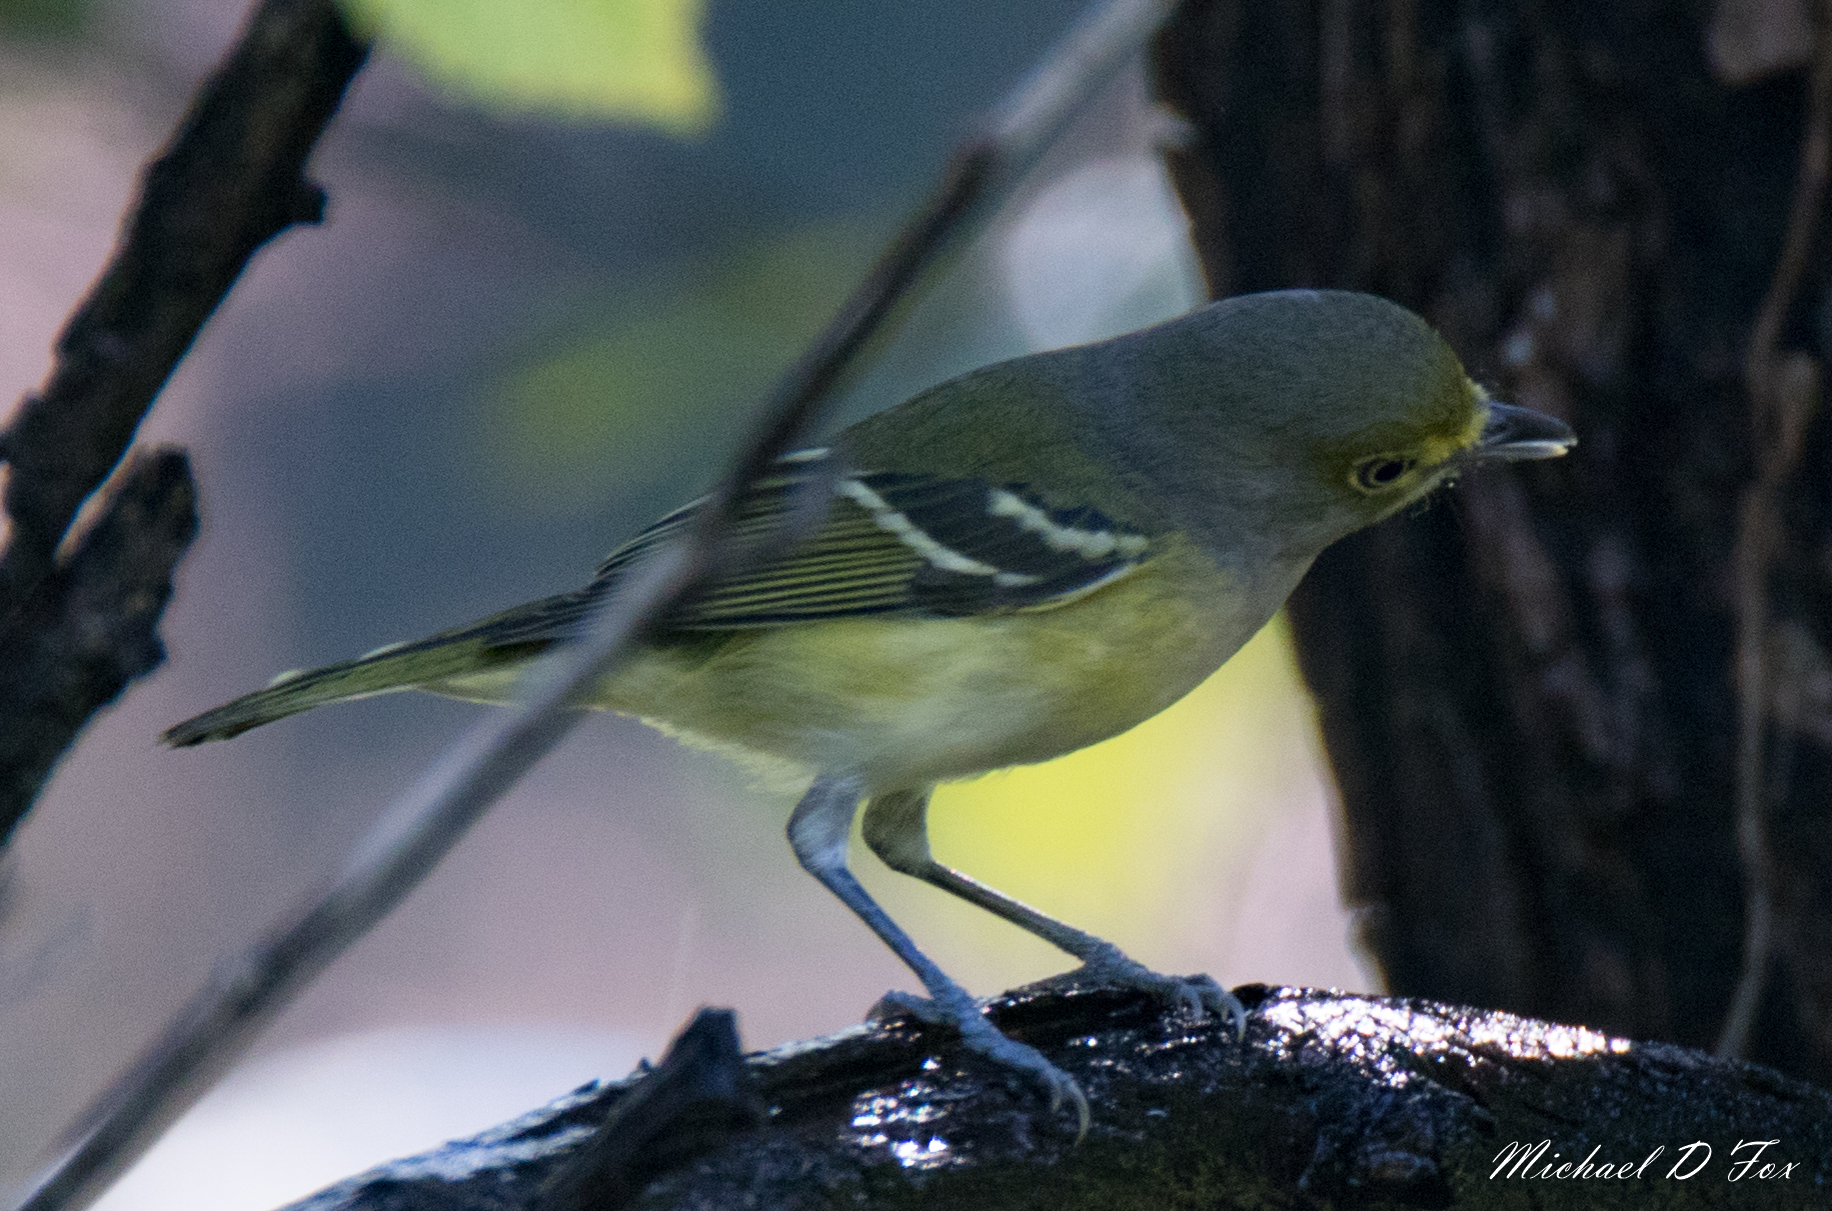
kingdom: Animalia
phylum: Chordata
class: Aves
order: Passeriformes
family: Vireonidae
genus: Vireo
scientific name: Vireo griseus
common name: White-eyed vireo
